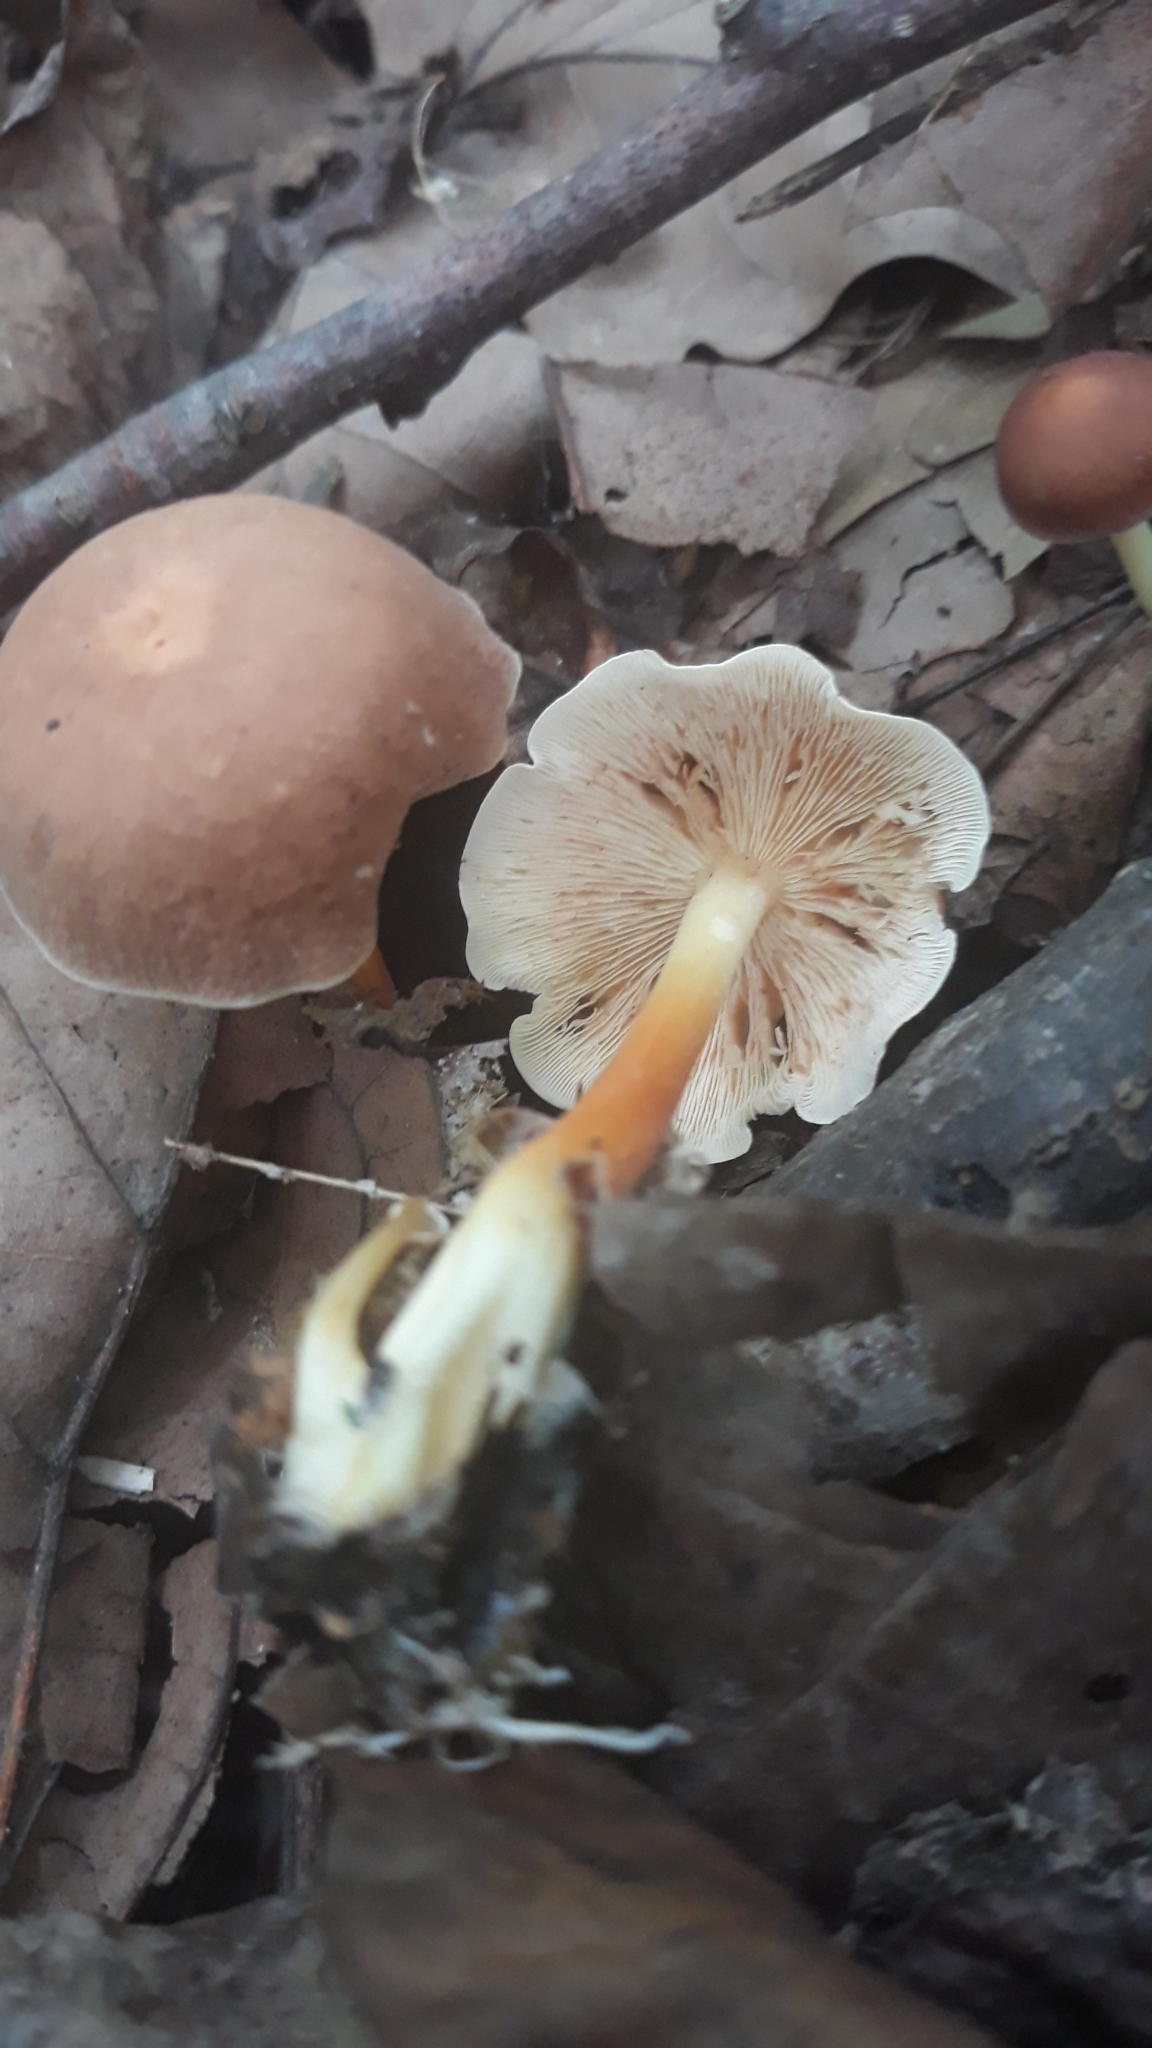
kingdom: Fungi
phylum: Basidiomycota
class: Agaricomycetes
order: Agaricales
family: Omphalotaceae
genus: Gymnopus
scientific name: Gymnopus dryophilus
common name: Penny top
